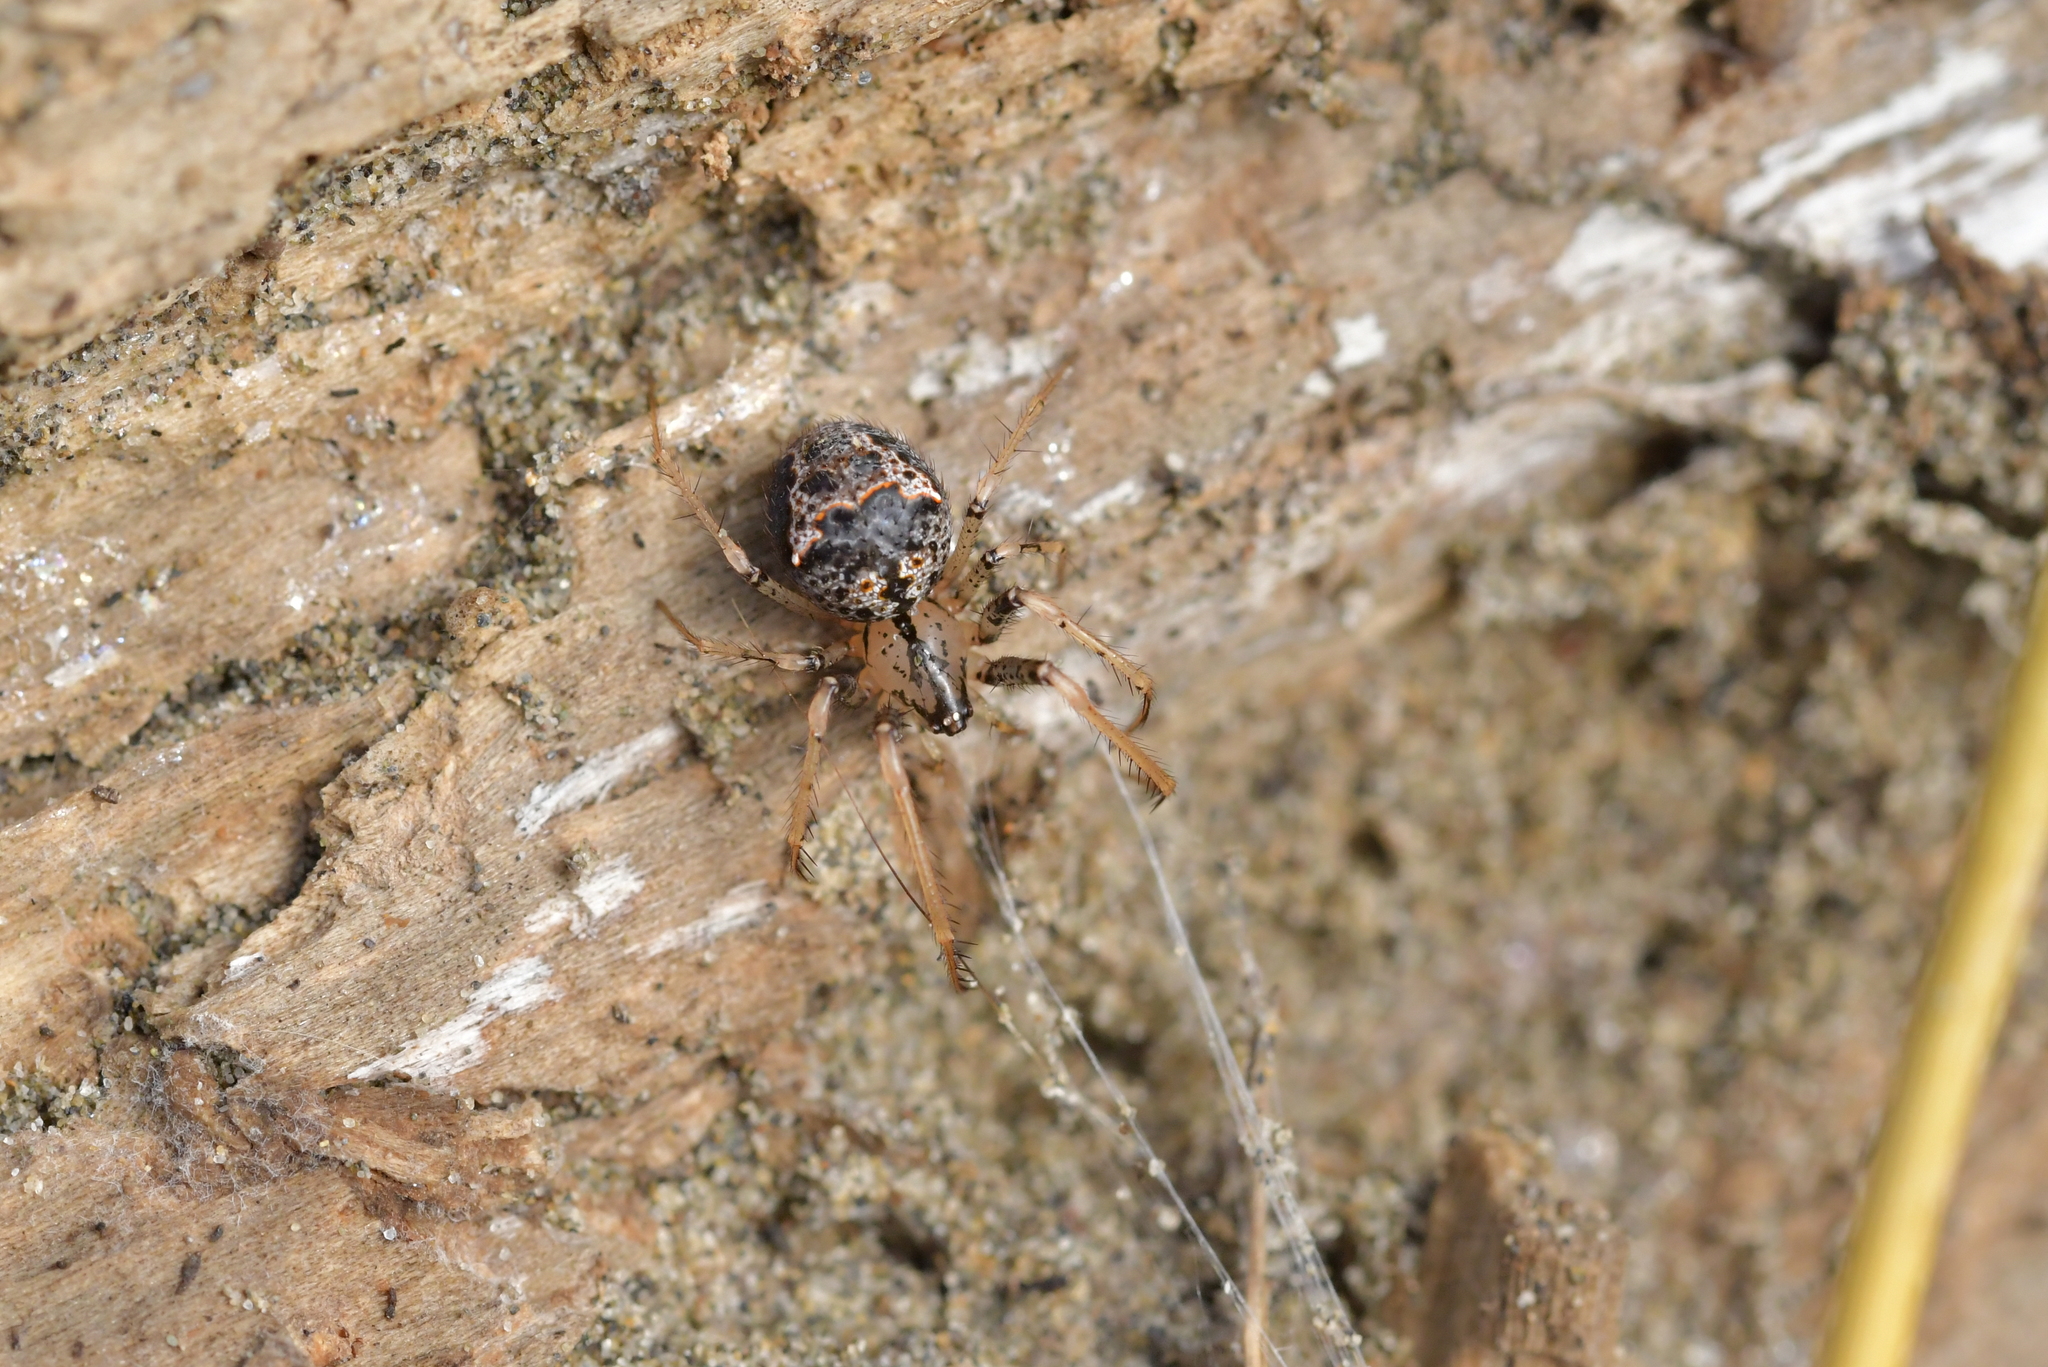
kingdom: Animalia
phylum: Arthropoda
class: Arachnida
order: Araneae
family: Mimetidae
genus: Australomimetus
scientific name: Australomimetus hartleyensis
